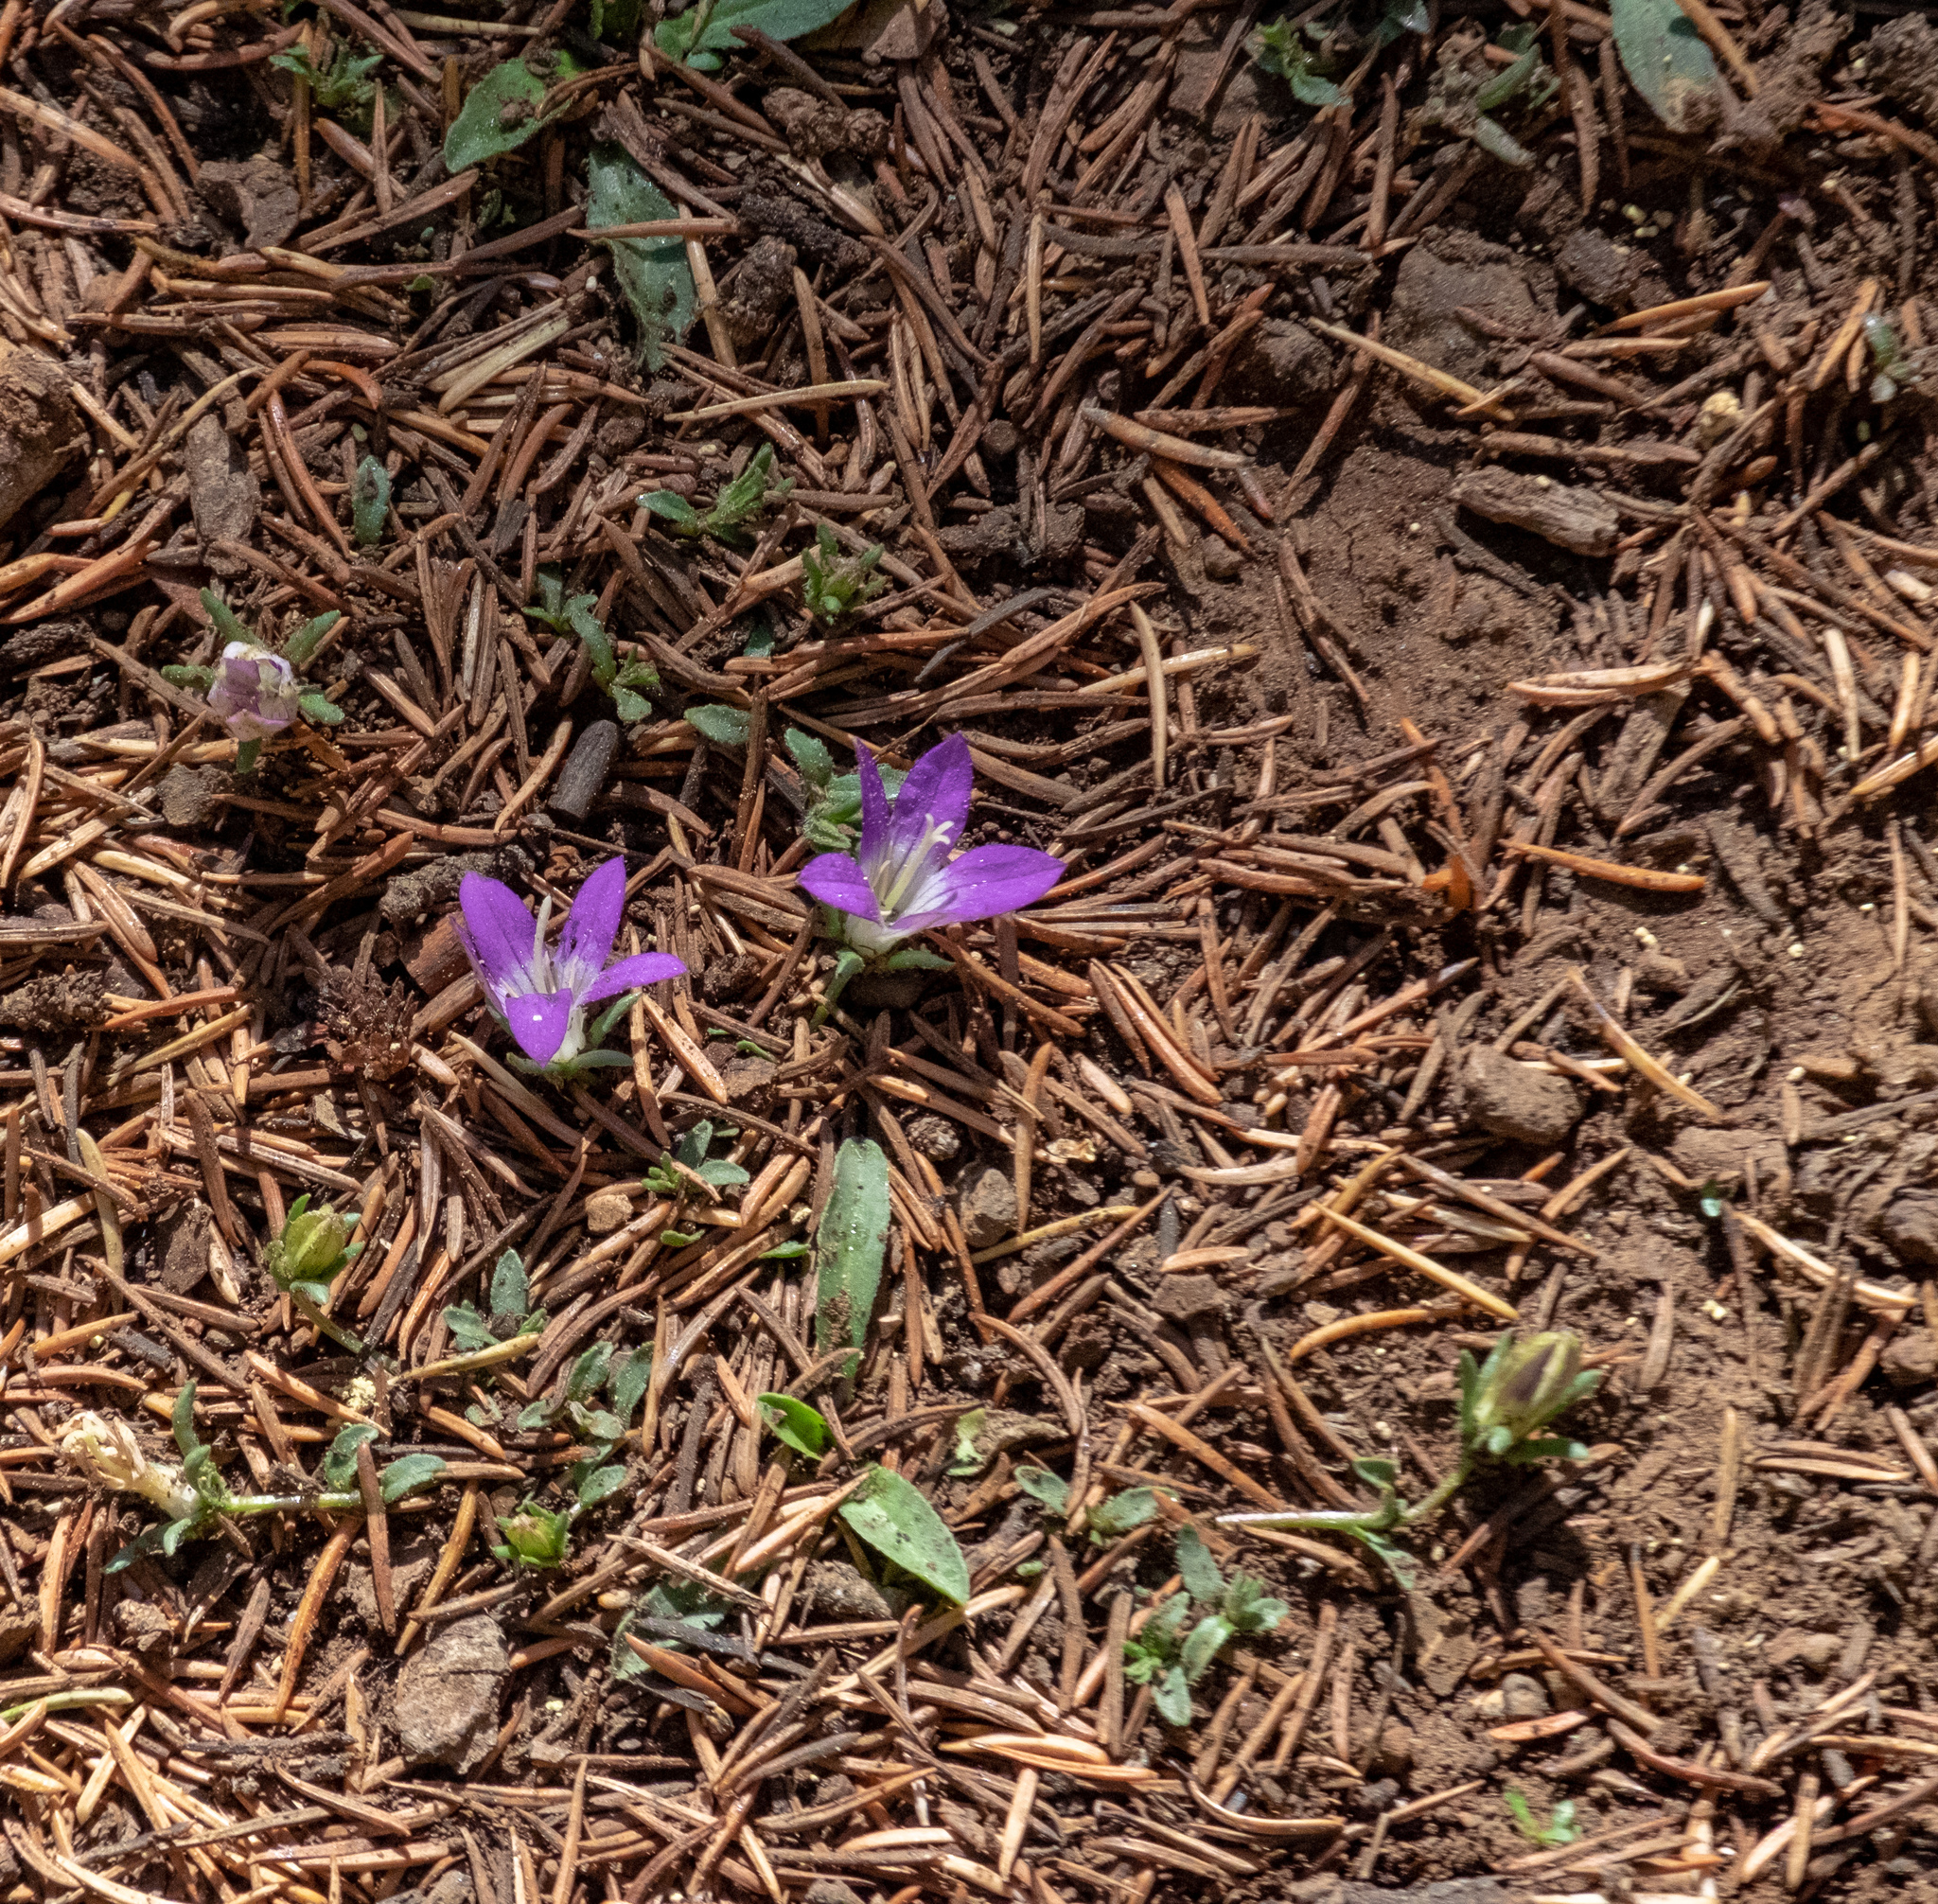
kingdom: Plantae
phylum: Tracheophyta
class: Magnoliopsida
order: Asterales
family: Campanulaceae
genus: Campanula
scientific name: Campanula filicaulis
